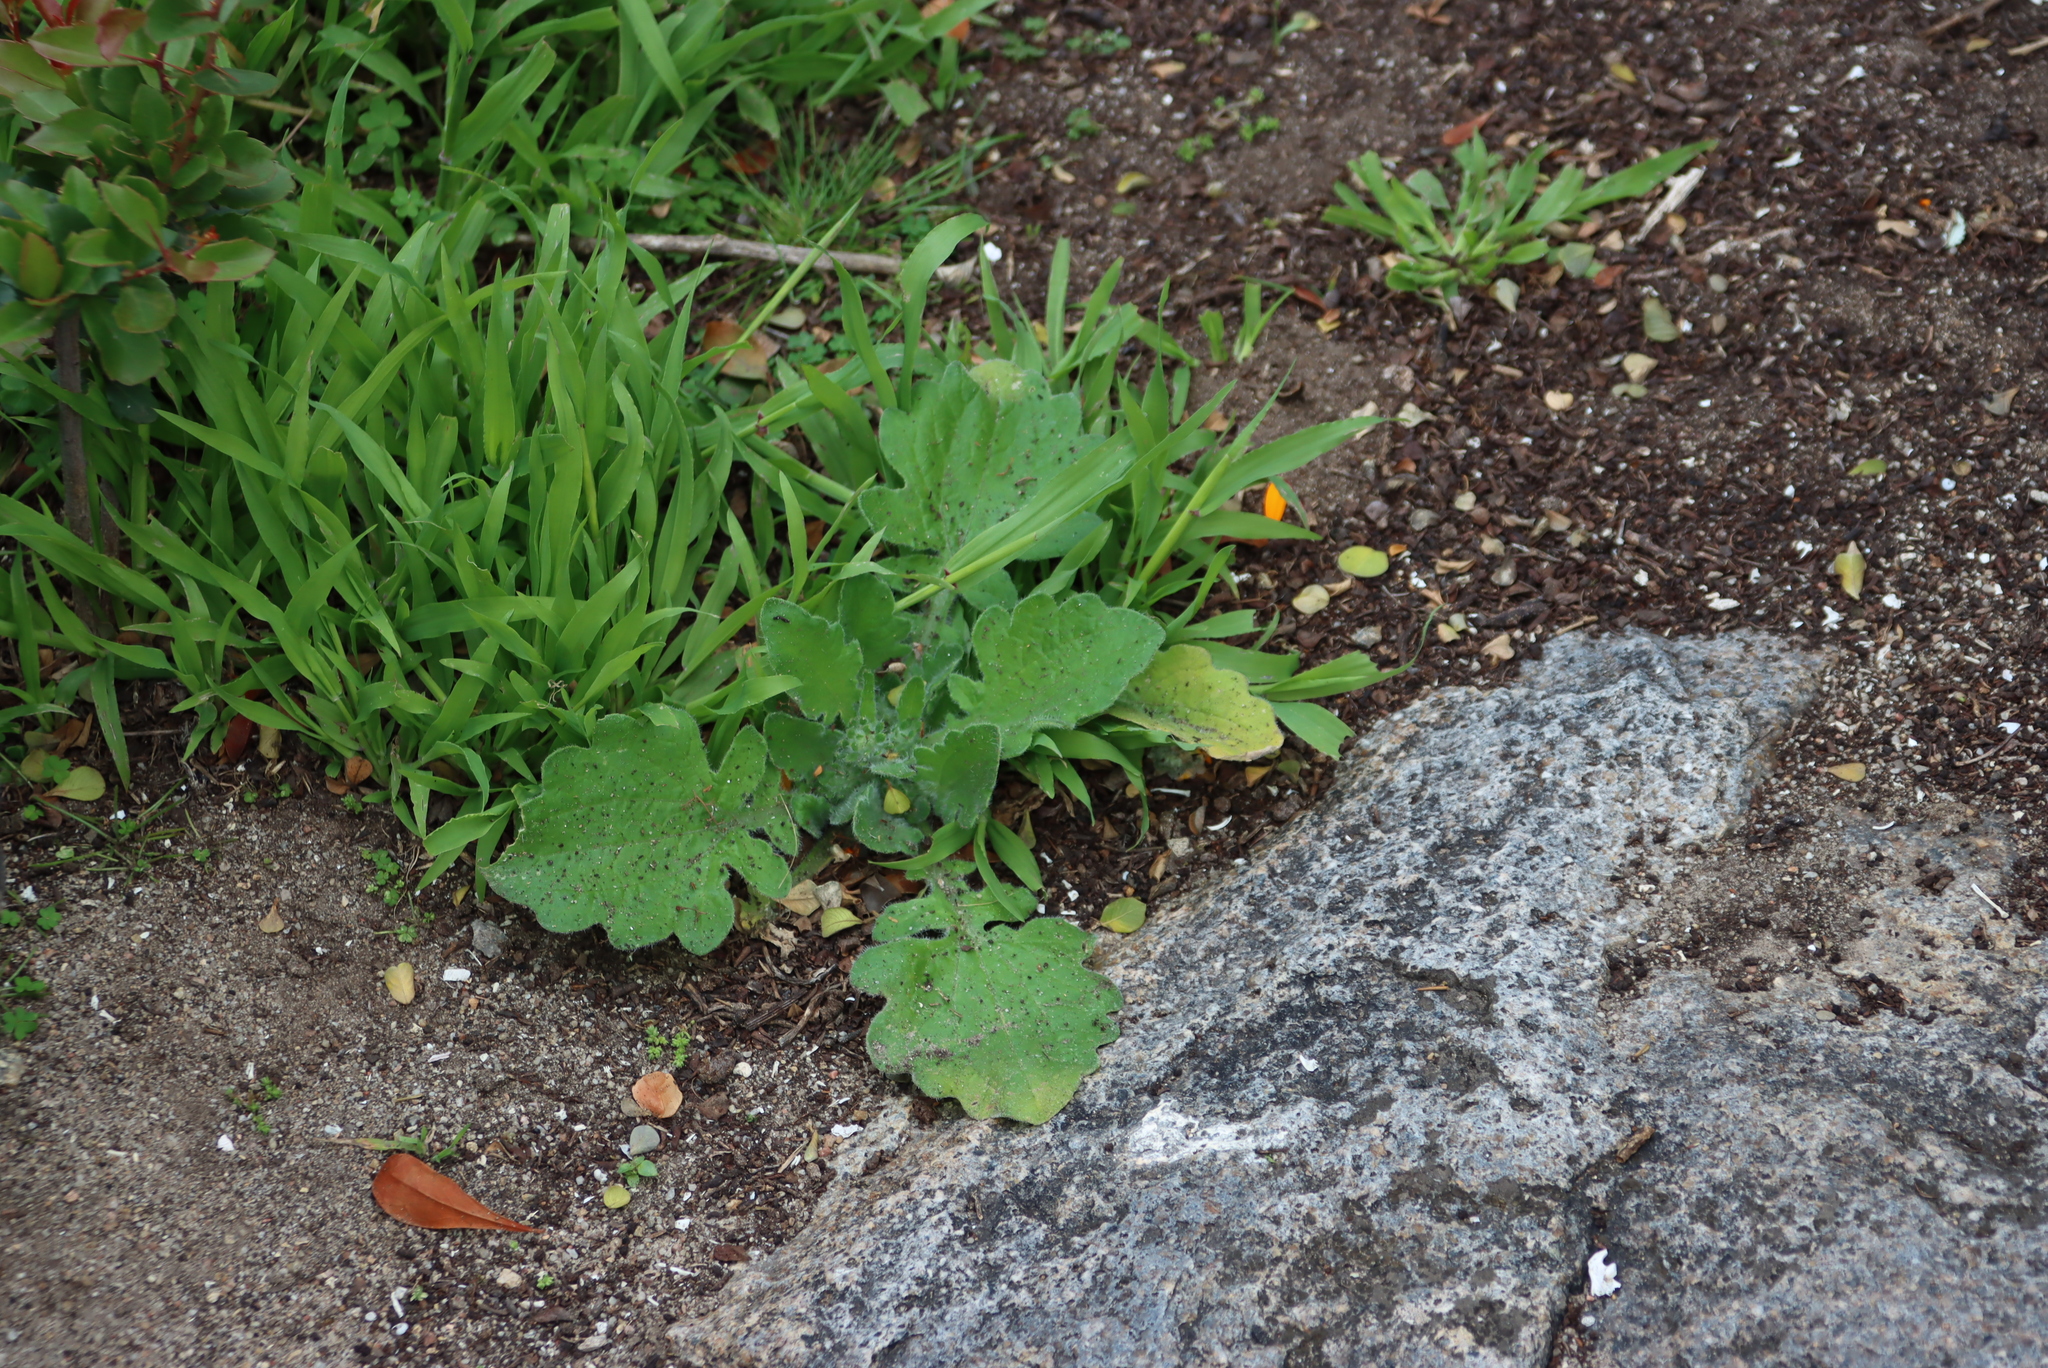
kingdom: Plantae
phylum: Tracheophyta
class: Magnoliopsida
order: Asterales
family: Asteraceae
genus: Arctotis
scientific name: Arctotis hirsuta
